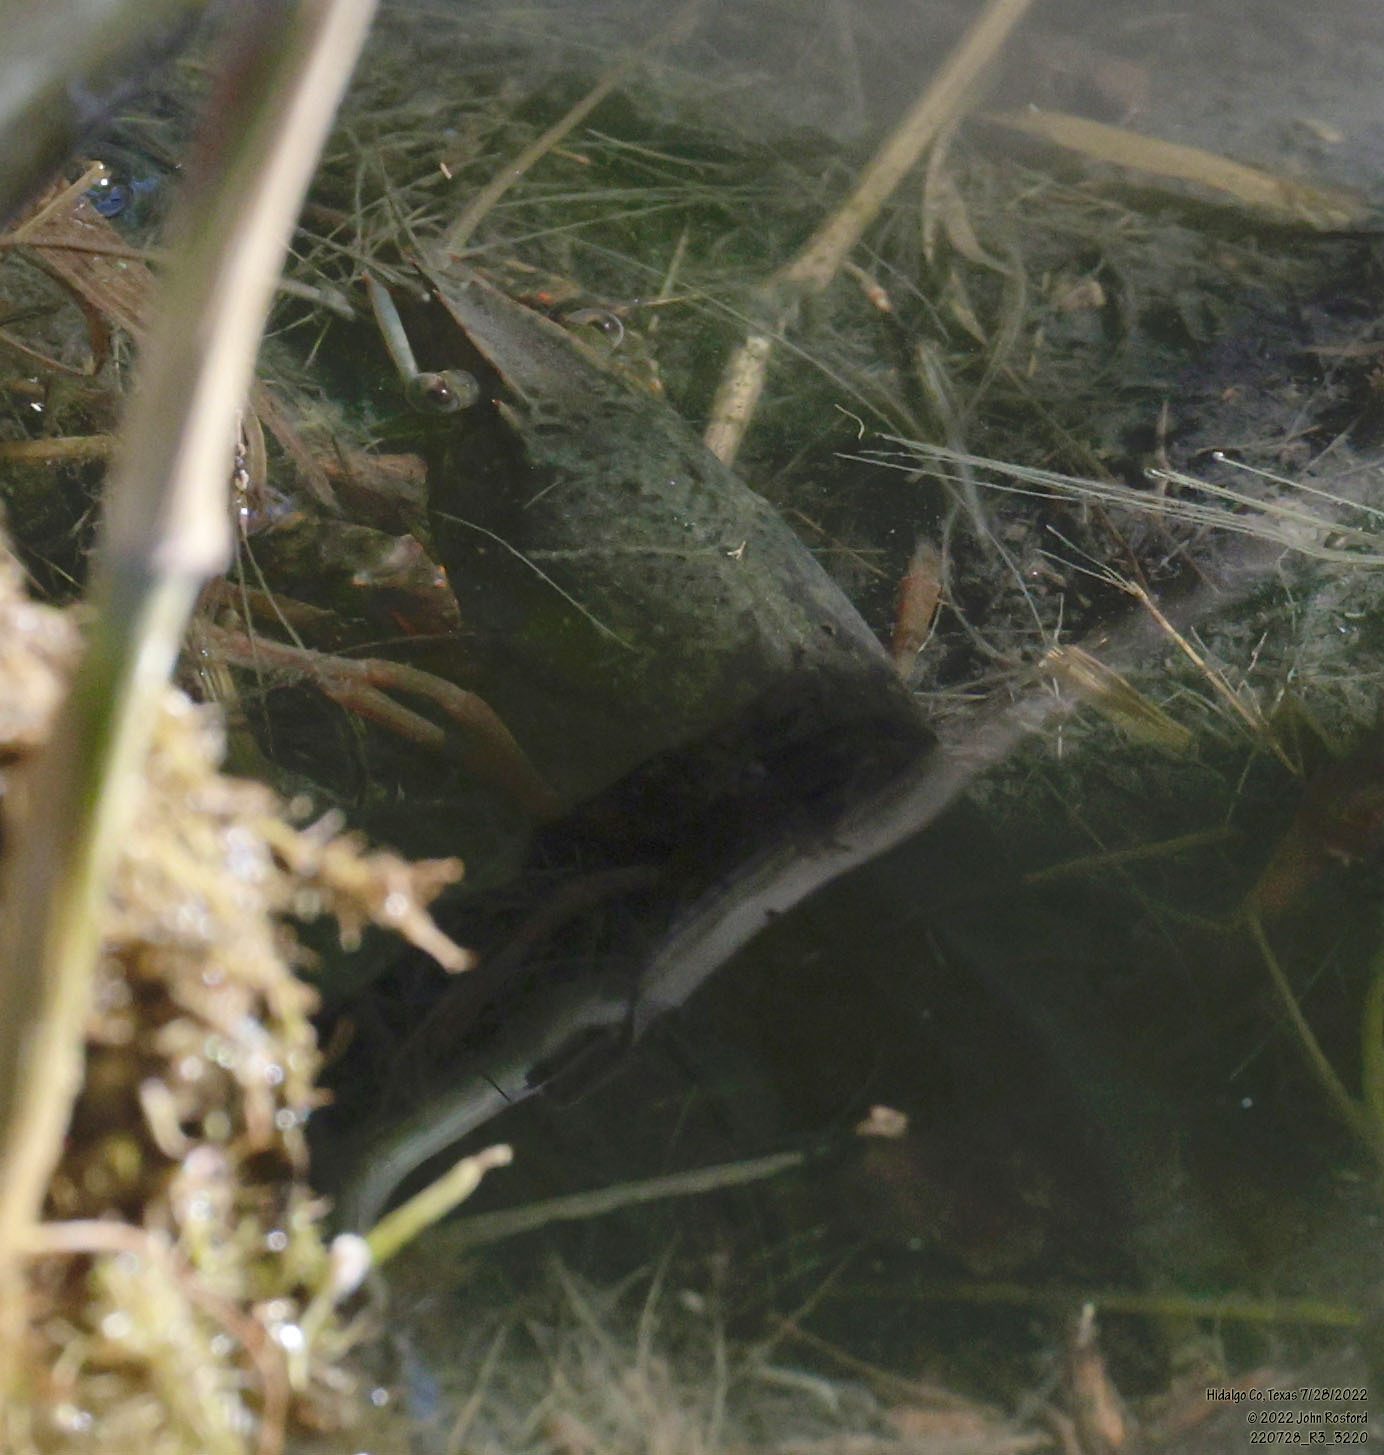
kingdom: Animalia
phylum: Arthropoda
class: Malacostraca
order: Decapoda
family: Cambaridae
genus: Procambarus
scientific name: Procambarus clarkii
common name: Red swamp crayfish
